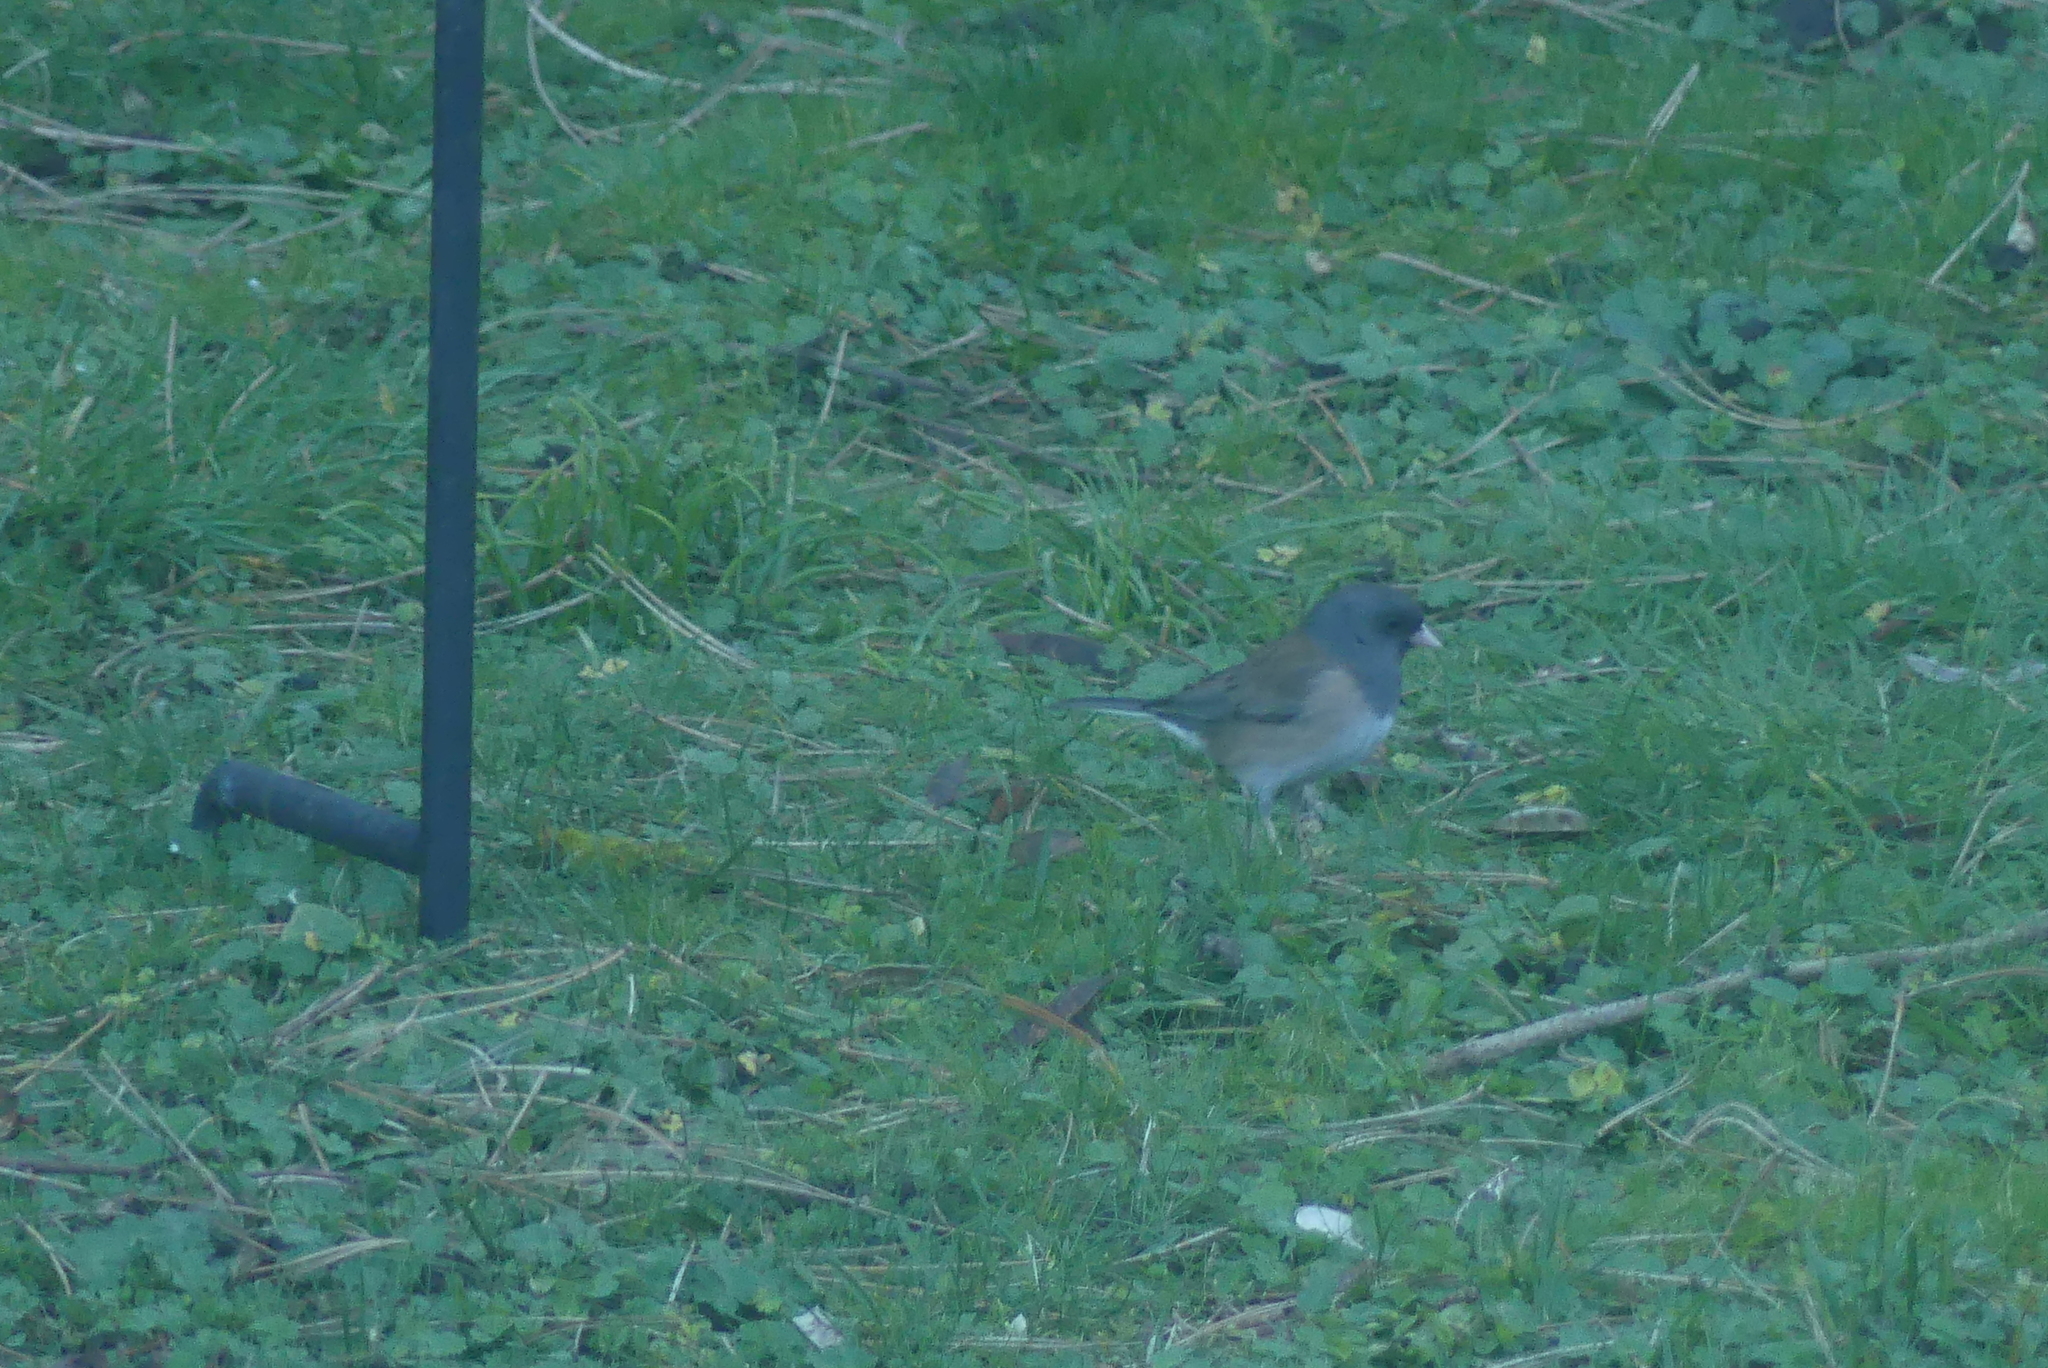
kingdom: Animalia
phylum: Chordata
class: Aves
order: Passeriformes
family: Passerellidae
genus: Junco
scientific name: Junco hyemalis
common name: Dark-eyed junco
